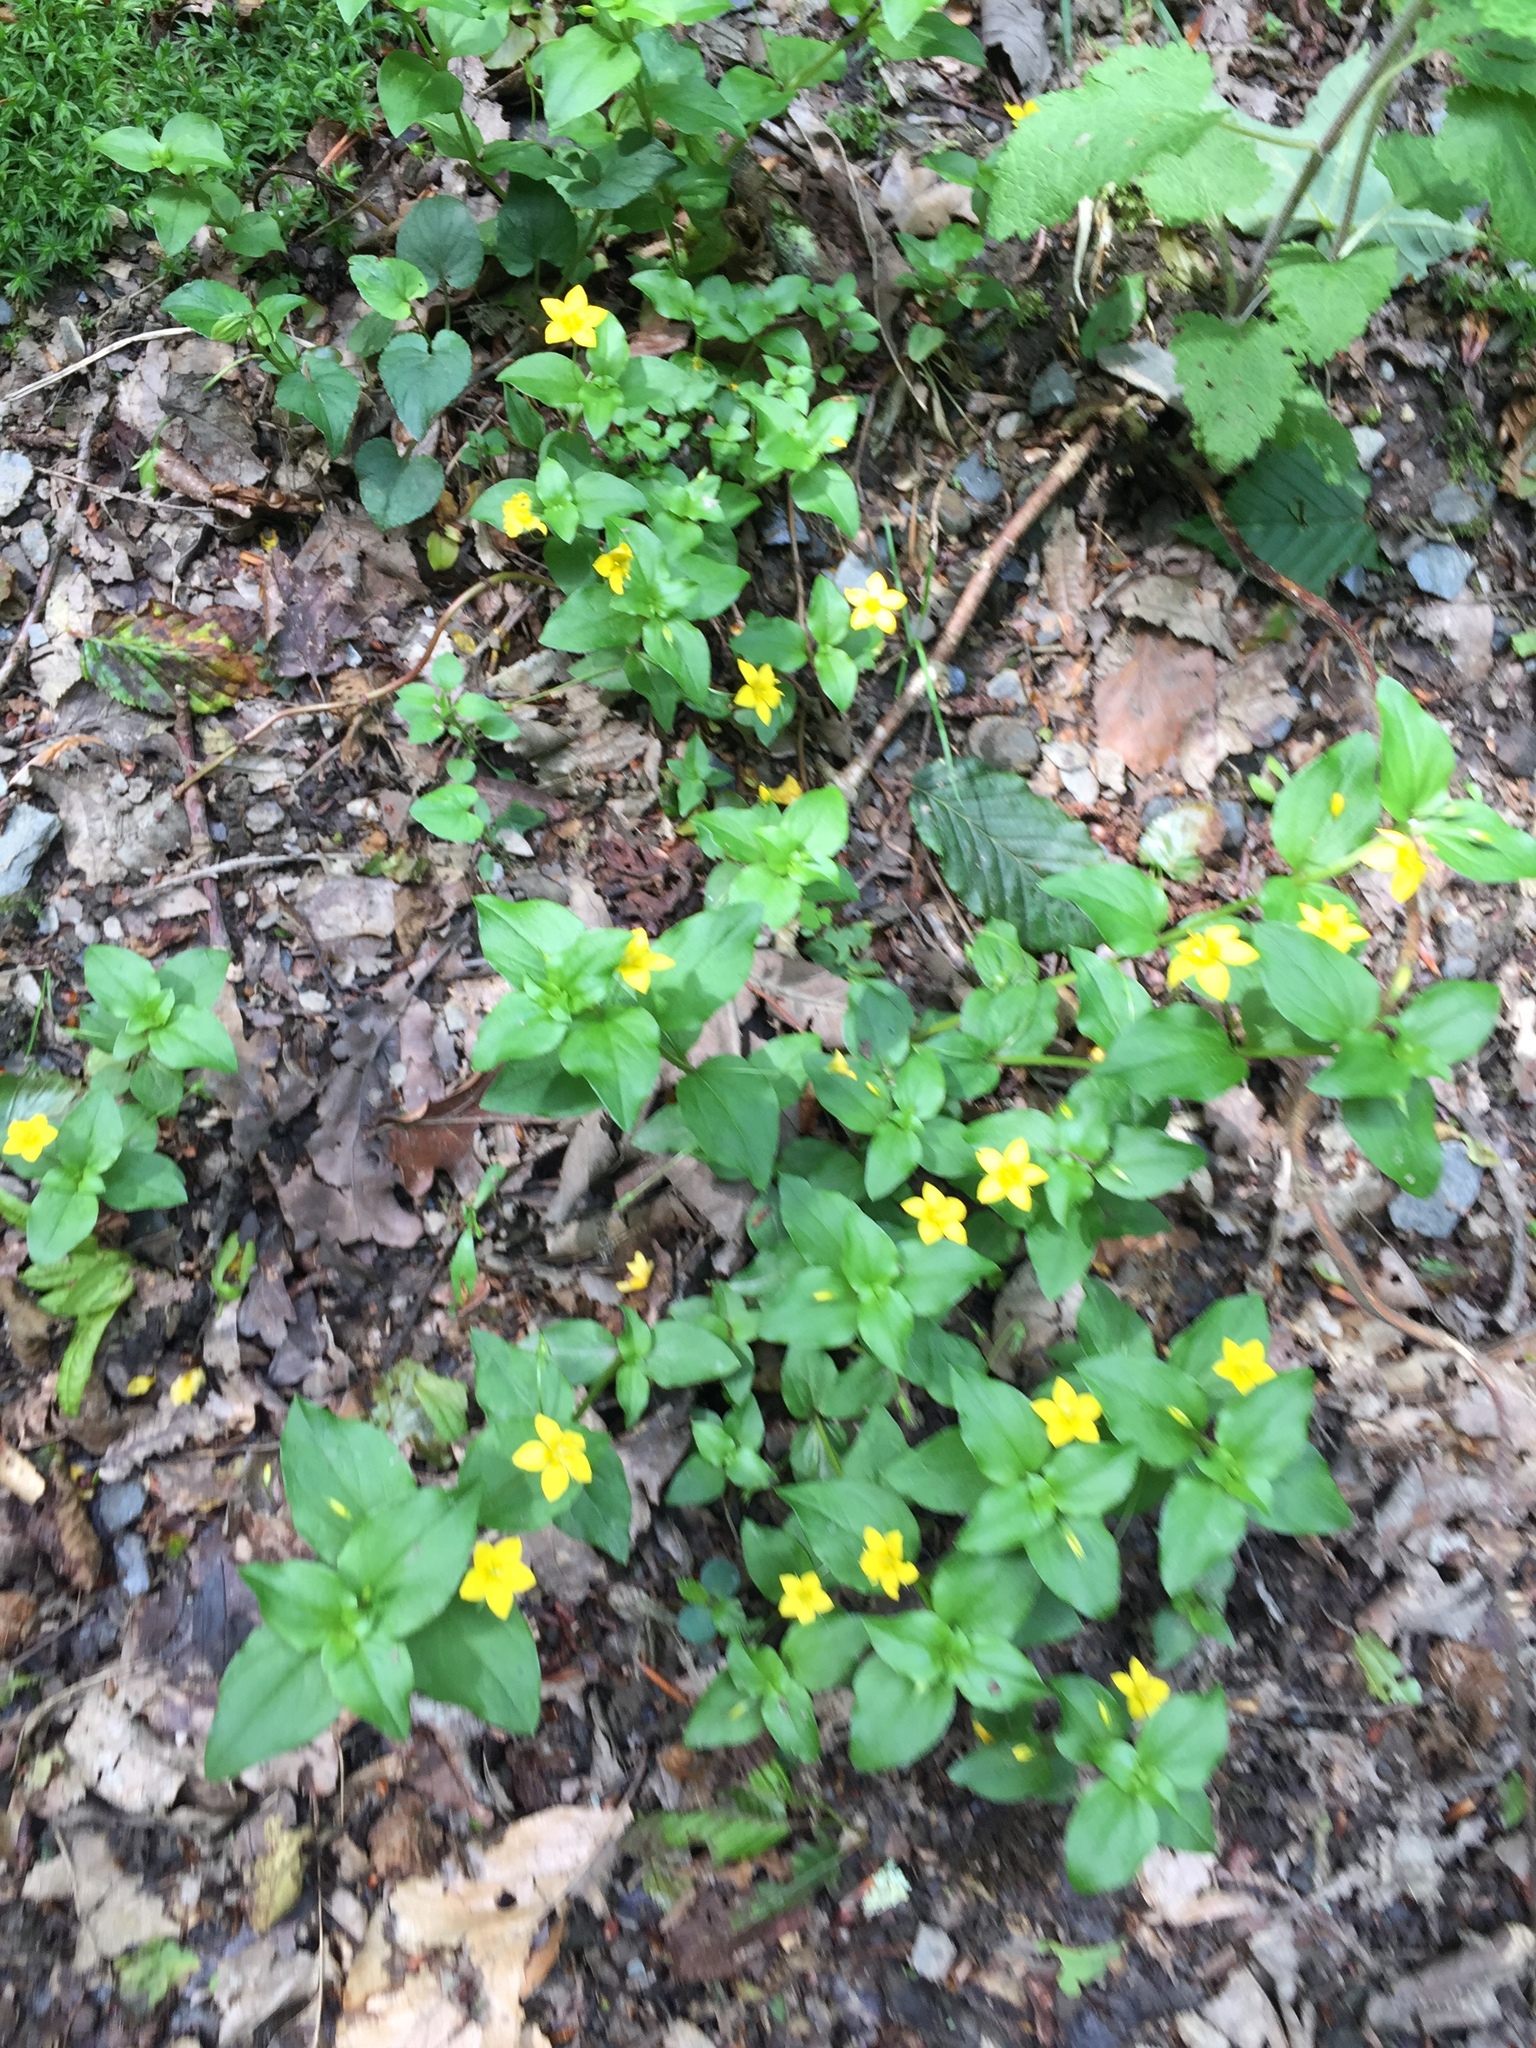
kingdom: Plantae
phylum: Tracheophyta
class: Magnoliopsida
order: Ericales
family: Primulaceae
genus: Lysimachia
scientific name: Lysimachia nemorum
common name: Yellow pimpernel
